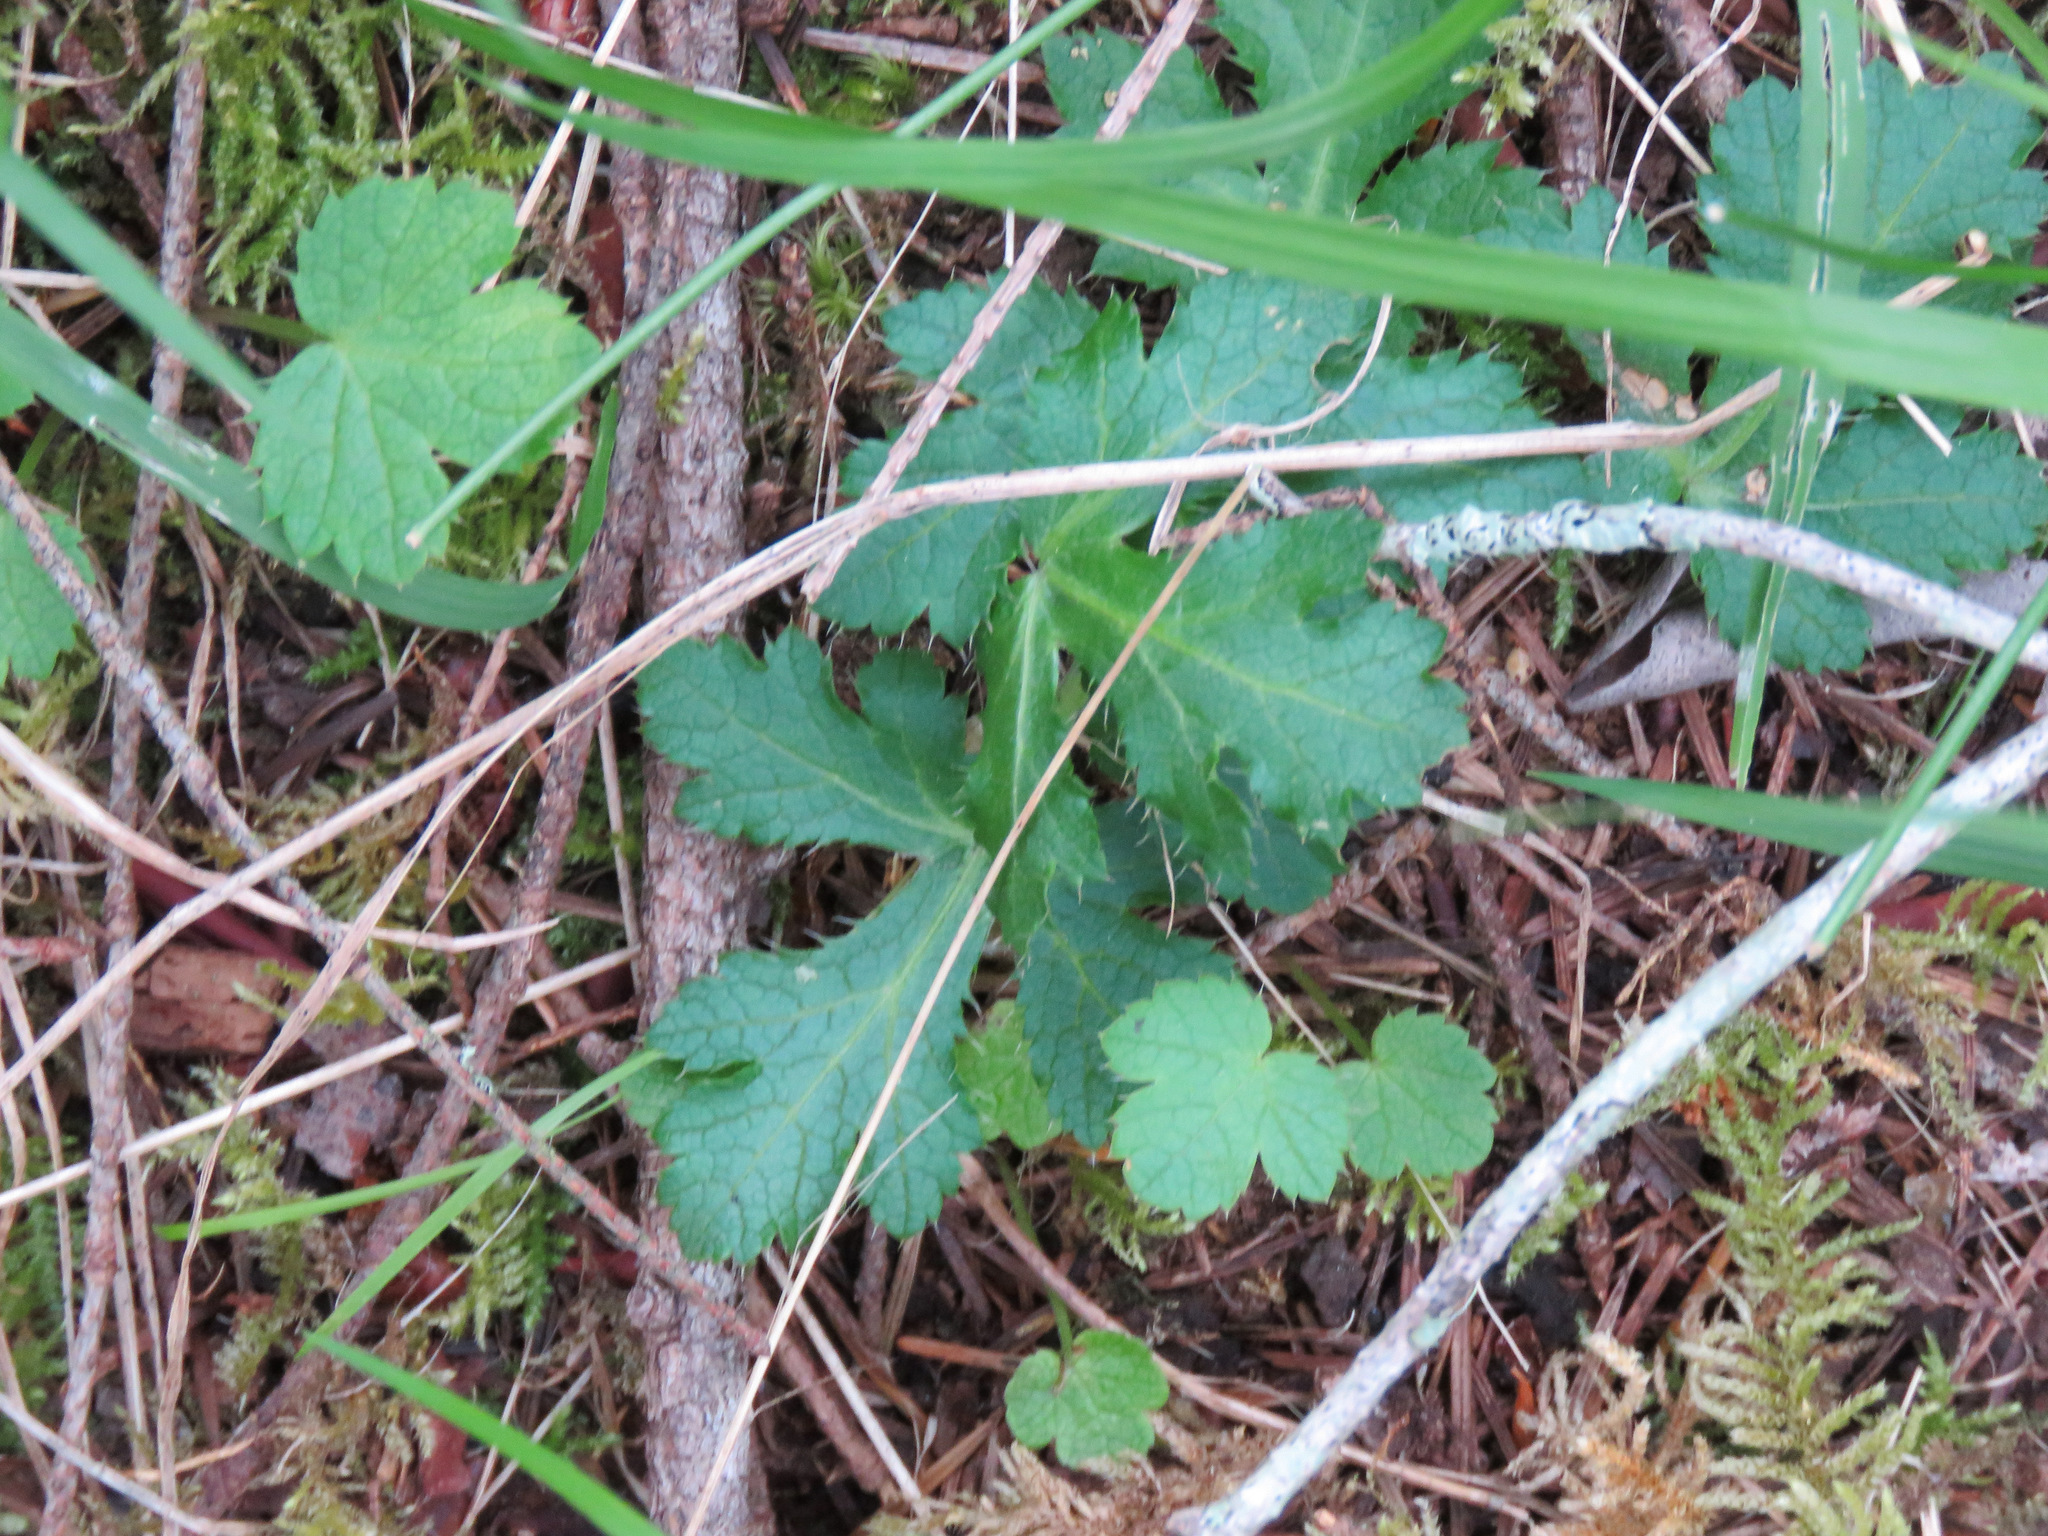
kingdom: Plantae
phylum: Tracheophyta
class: Magnoliopsida
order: Apiales
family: Apiaceae
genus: Sanicula
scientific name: Sanicula crassicaulis
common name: Western snakeroot
